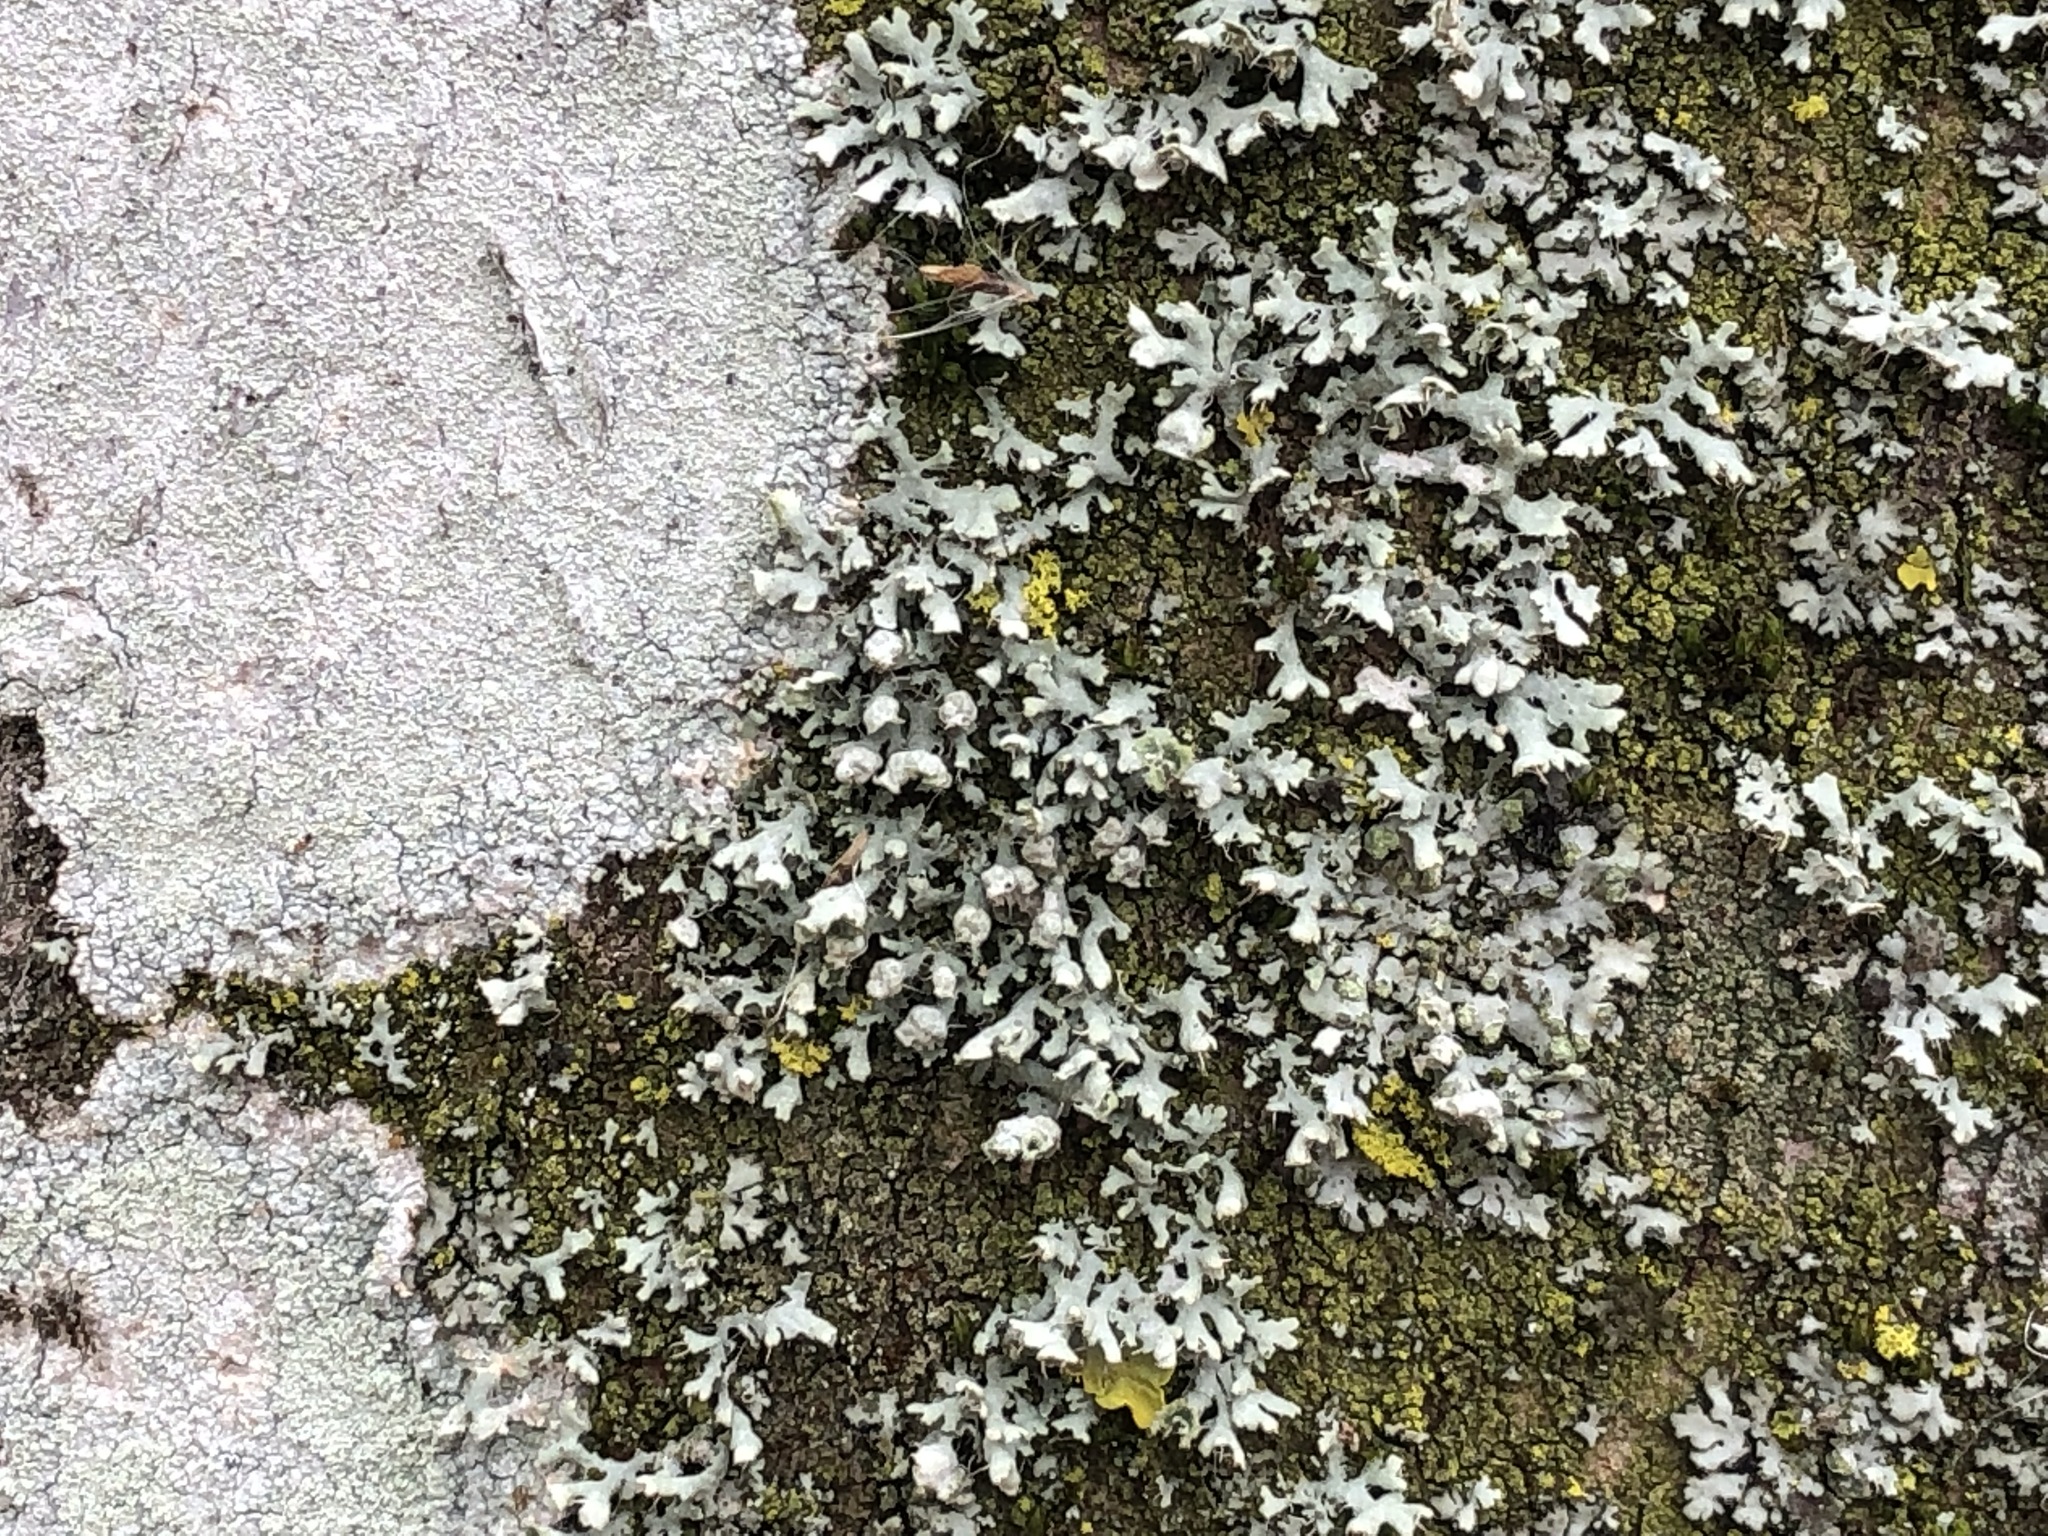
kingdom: Fungi
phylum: Ascomycota
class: Lecanoromycetes
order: Caliciales
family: Physciaceae
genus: Physcia
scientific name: Physcia adscendens
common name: Hooded rosette lichen
